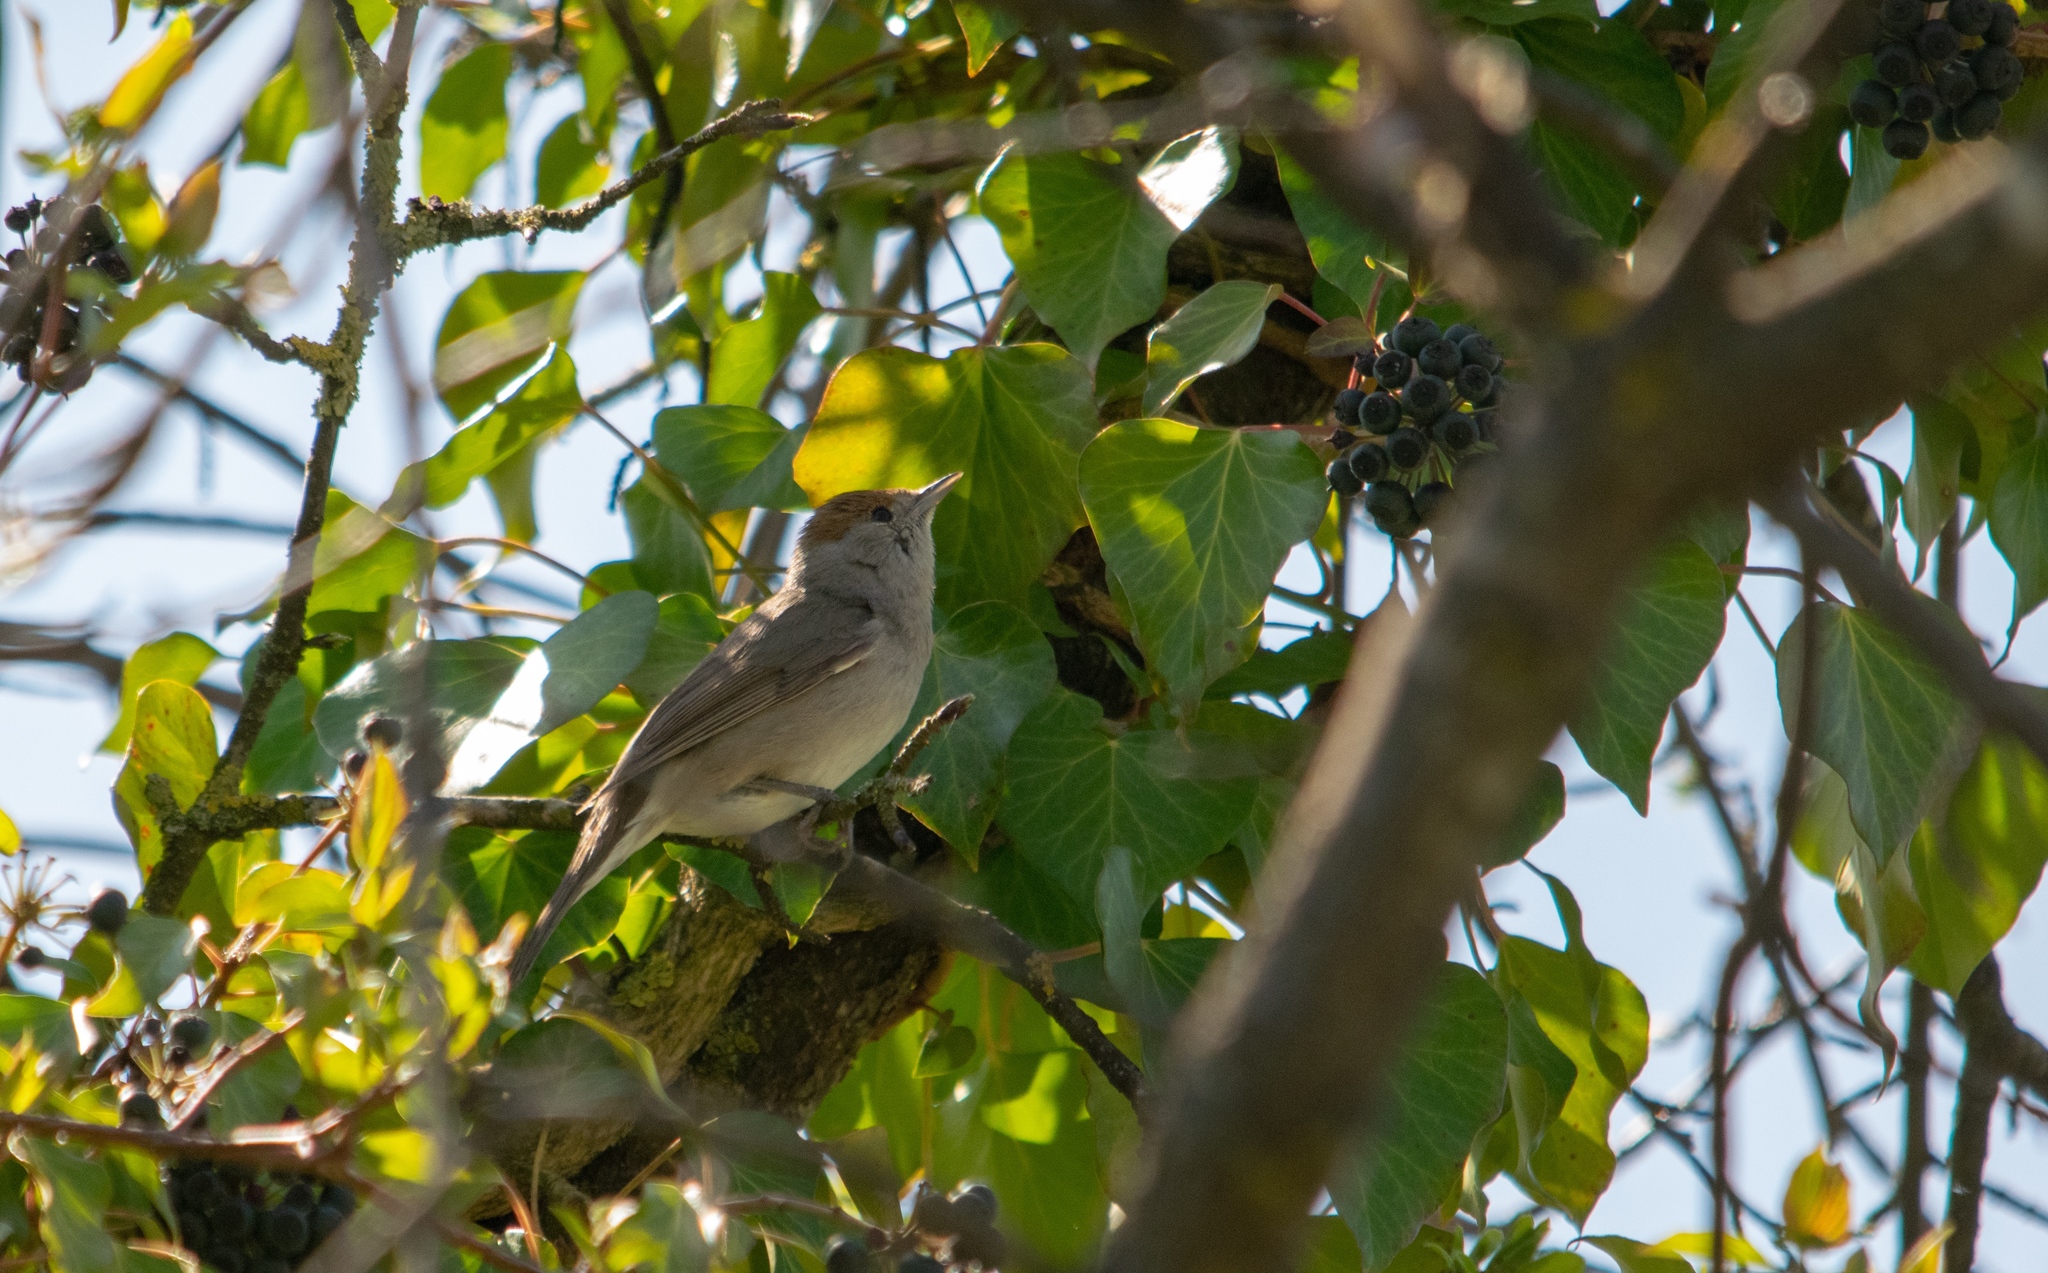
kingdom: Animalia
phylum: Chordata
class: Aves
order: Passeriformes
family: Sylviidae
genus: Sylvia
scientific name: Sylvia atricapilla
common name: Eurasian blackcap
